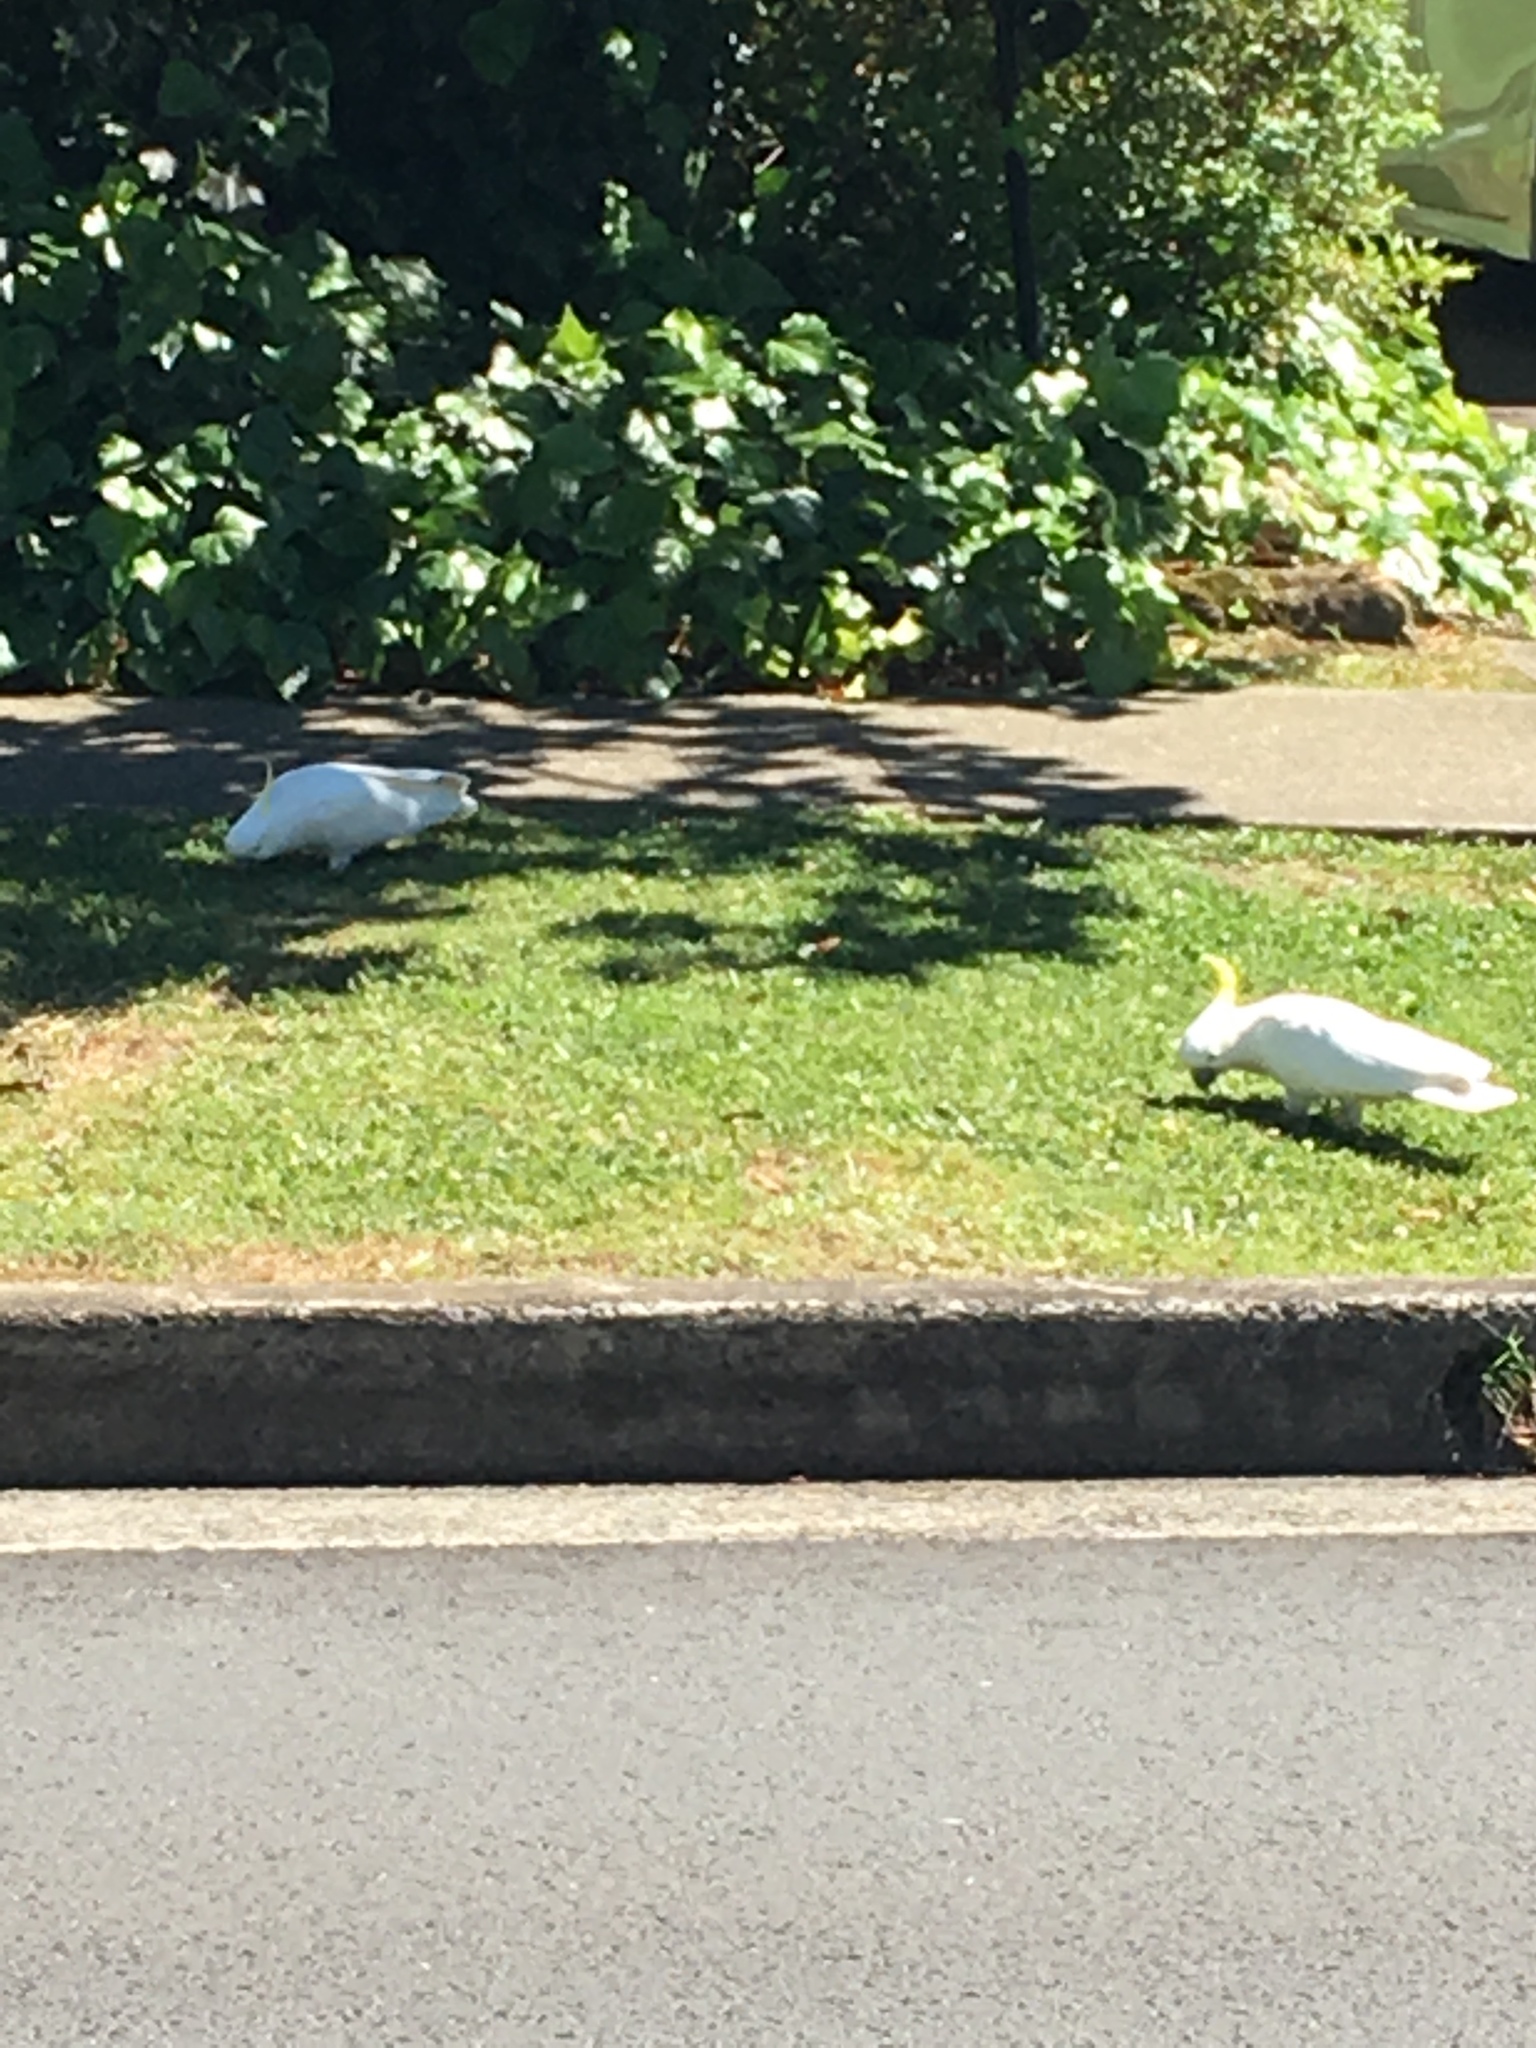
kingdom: Animalia
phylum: Chordata
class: Aves
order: Psittaciformes
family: Psittacidae
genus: Cacatua
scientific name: Cacatua galerita
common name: Sulphur-crested cockatoo
